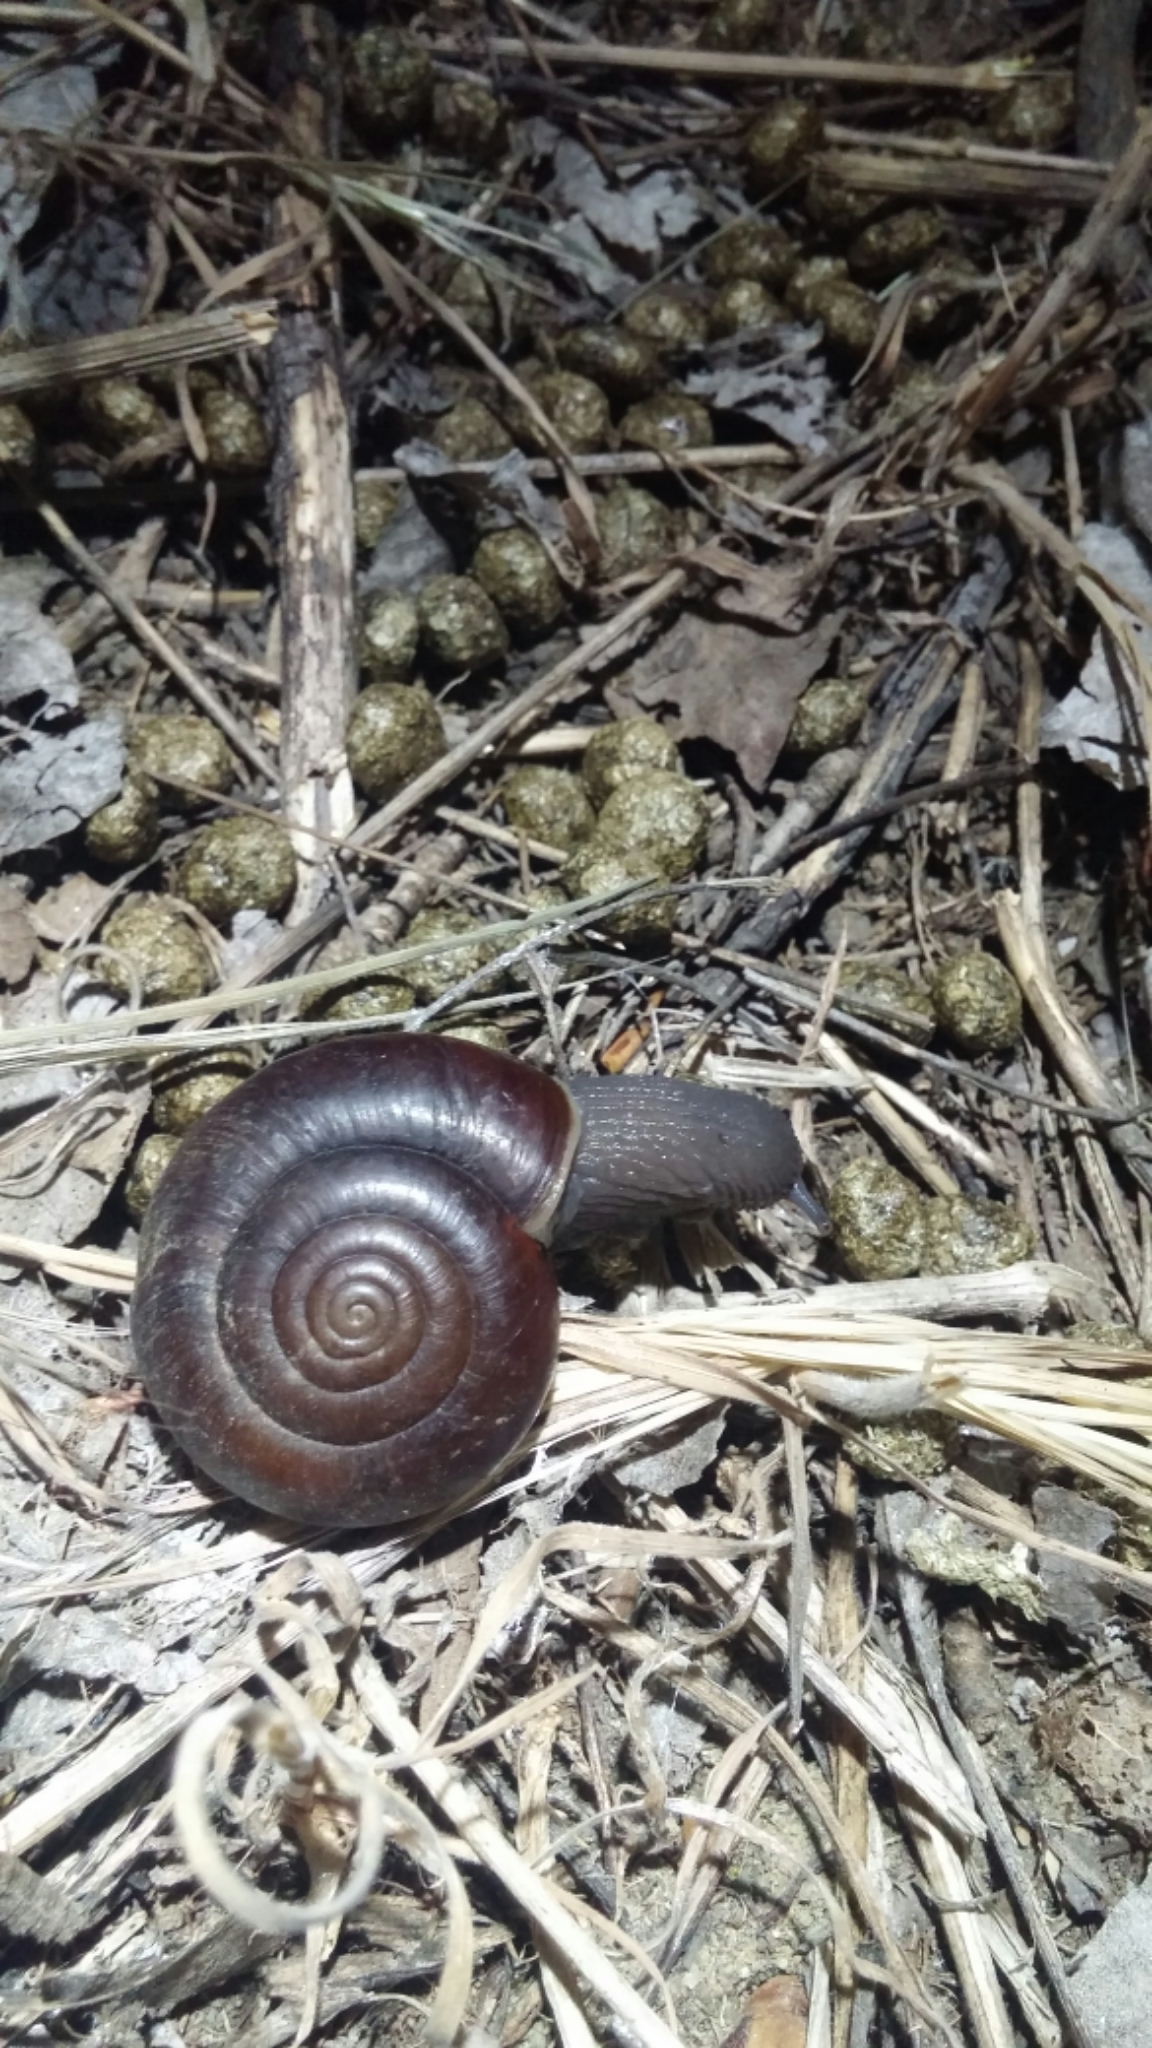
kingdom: Animalia
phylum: Mollusca
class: Gastropoda
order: Stylommatophora
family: Megomphicidae
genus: Glyptostoma
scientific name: Glyptostoma newberryanum
